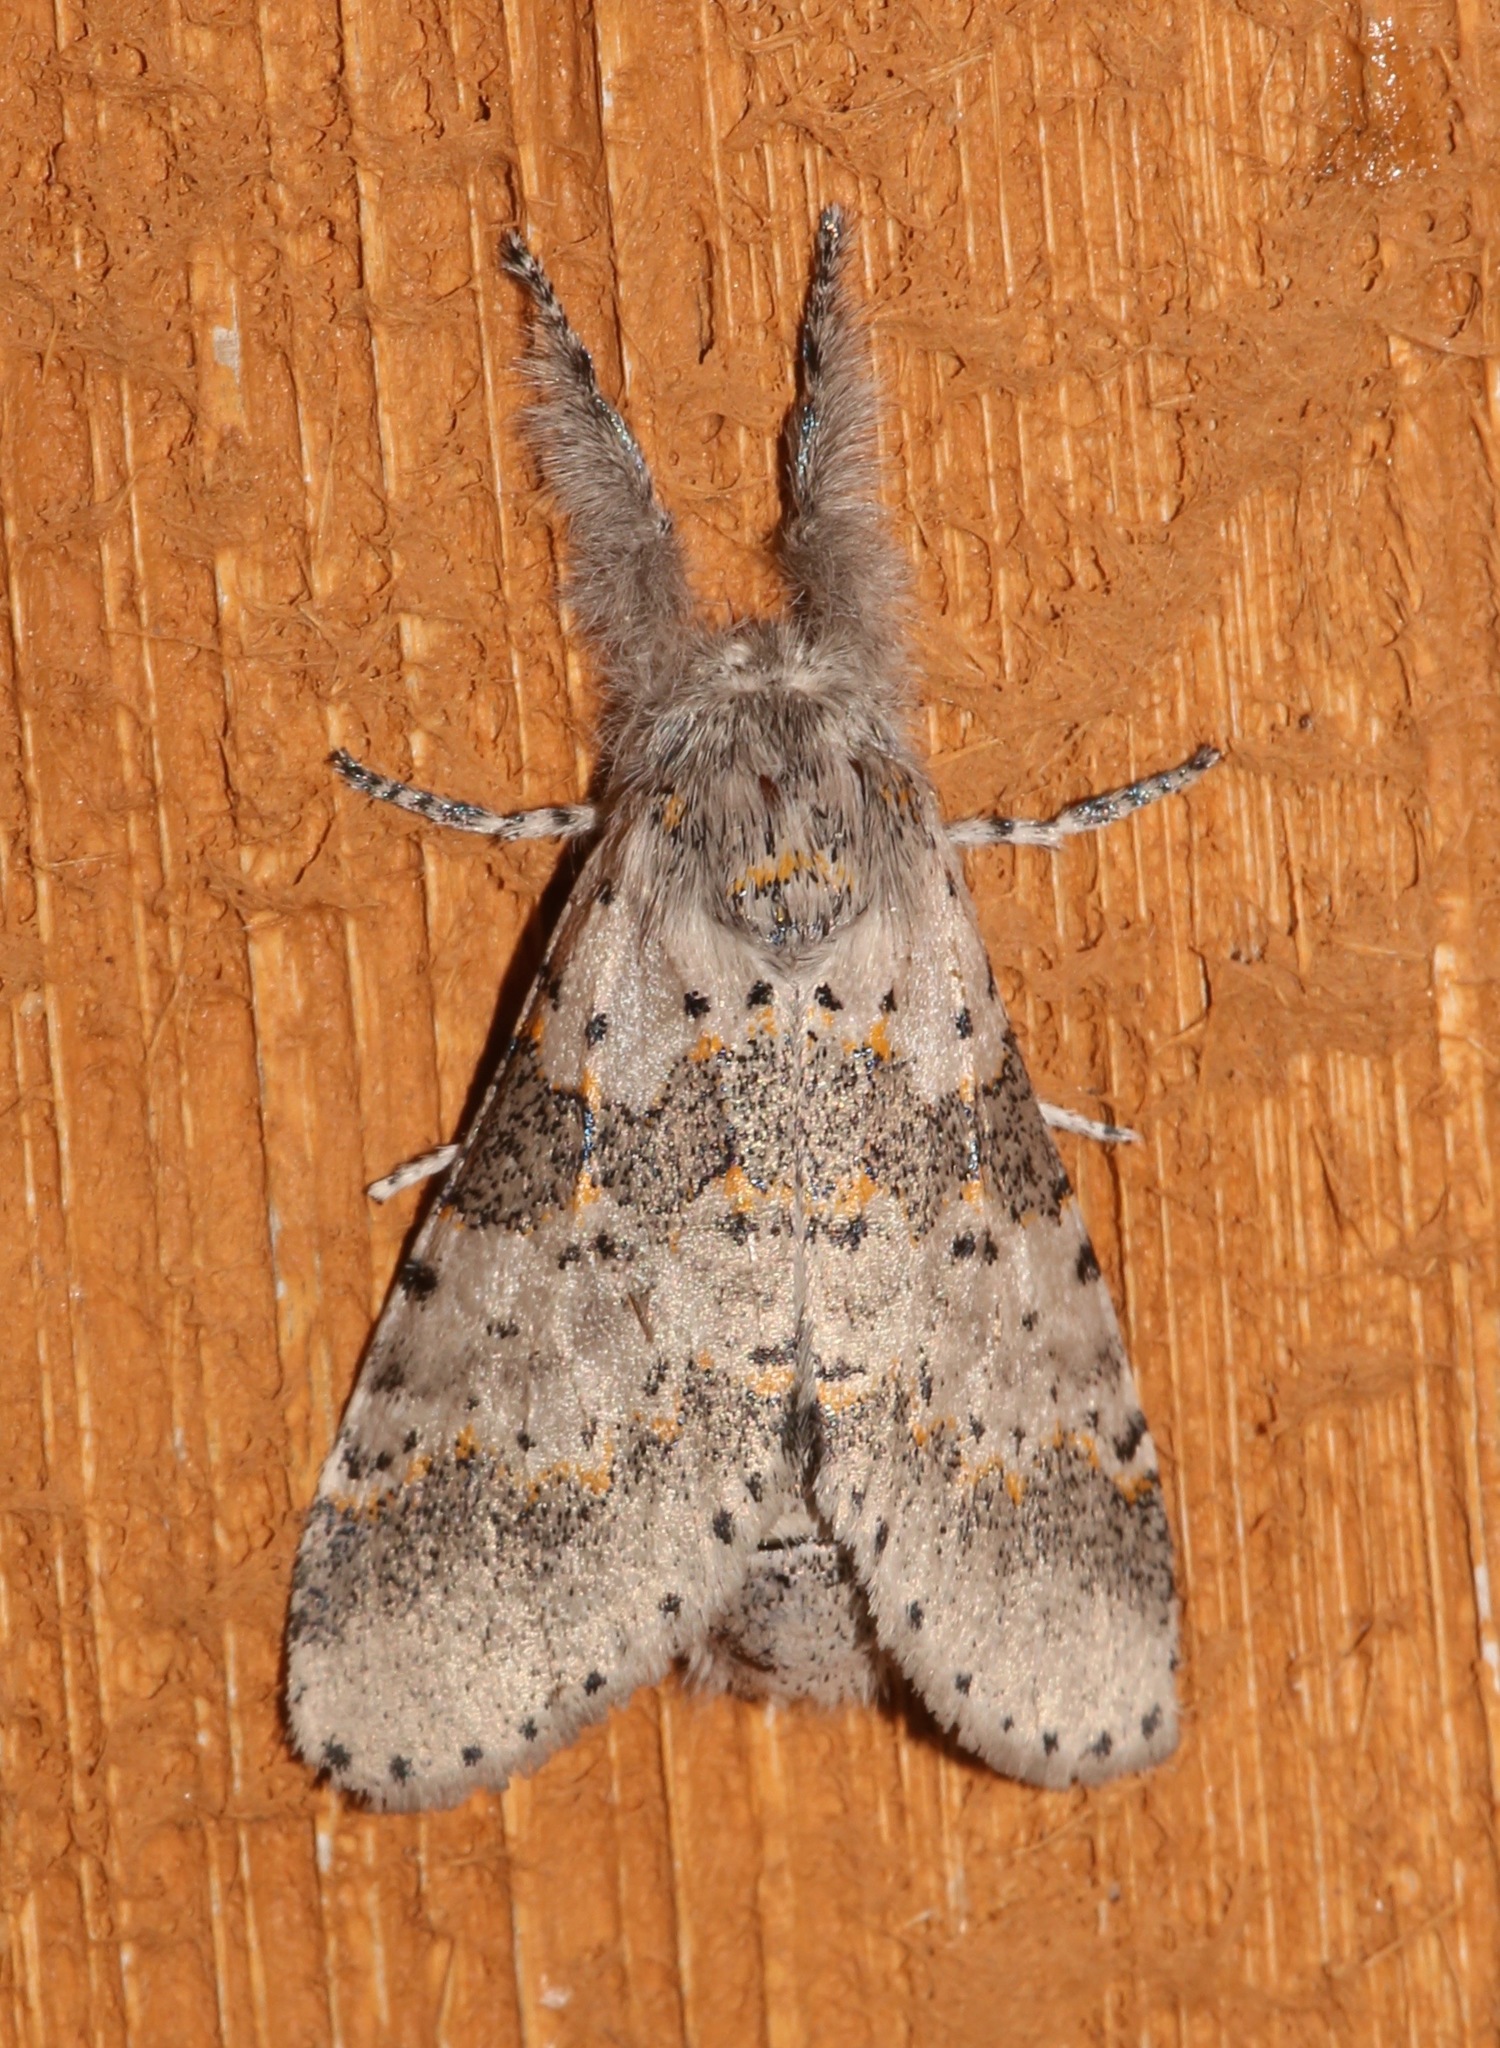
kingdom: Animalia
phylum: Arthropoda
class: Insecta
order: Lepidoptera
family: Notodontidae
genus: Furcula
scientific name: Furcula cinerea
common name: Gray furcula
